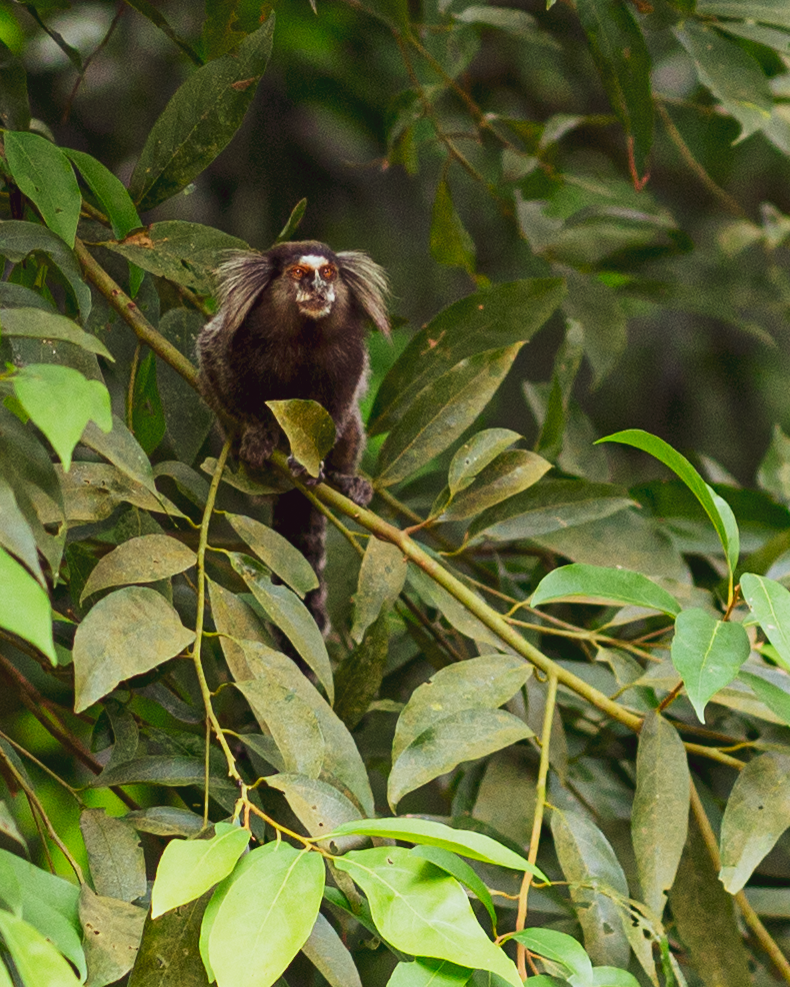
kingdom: Animalia
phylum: Chordata
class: Mammalia
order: Primates
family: Callitrichidae
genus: Callithrix
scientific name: Callithrix penicillata
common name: Black-tufted marmoset
